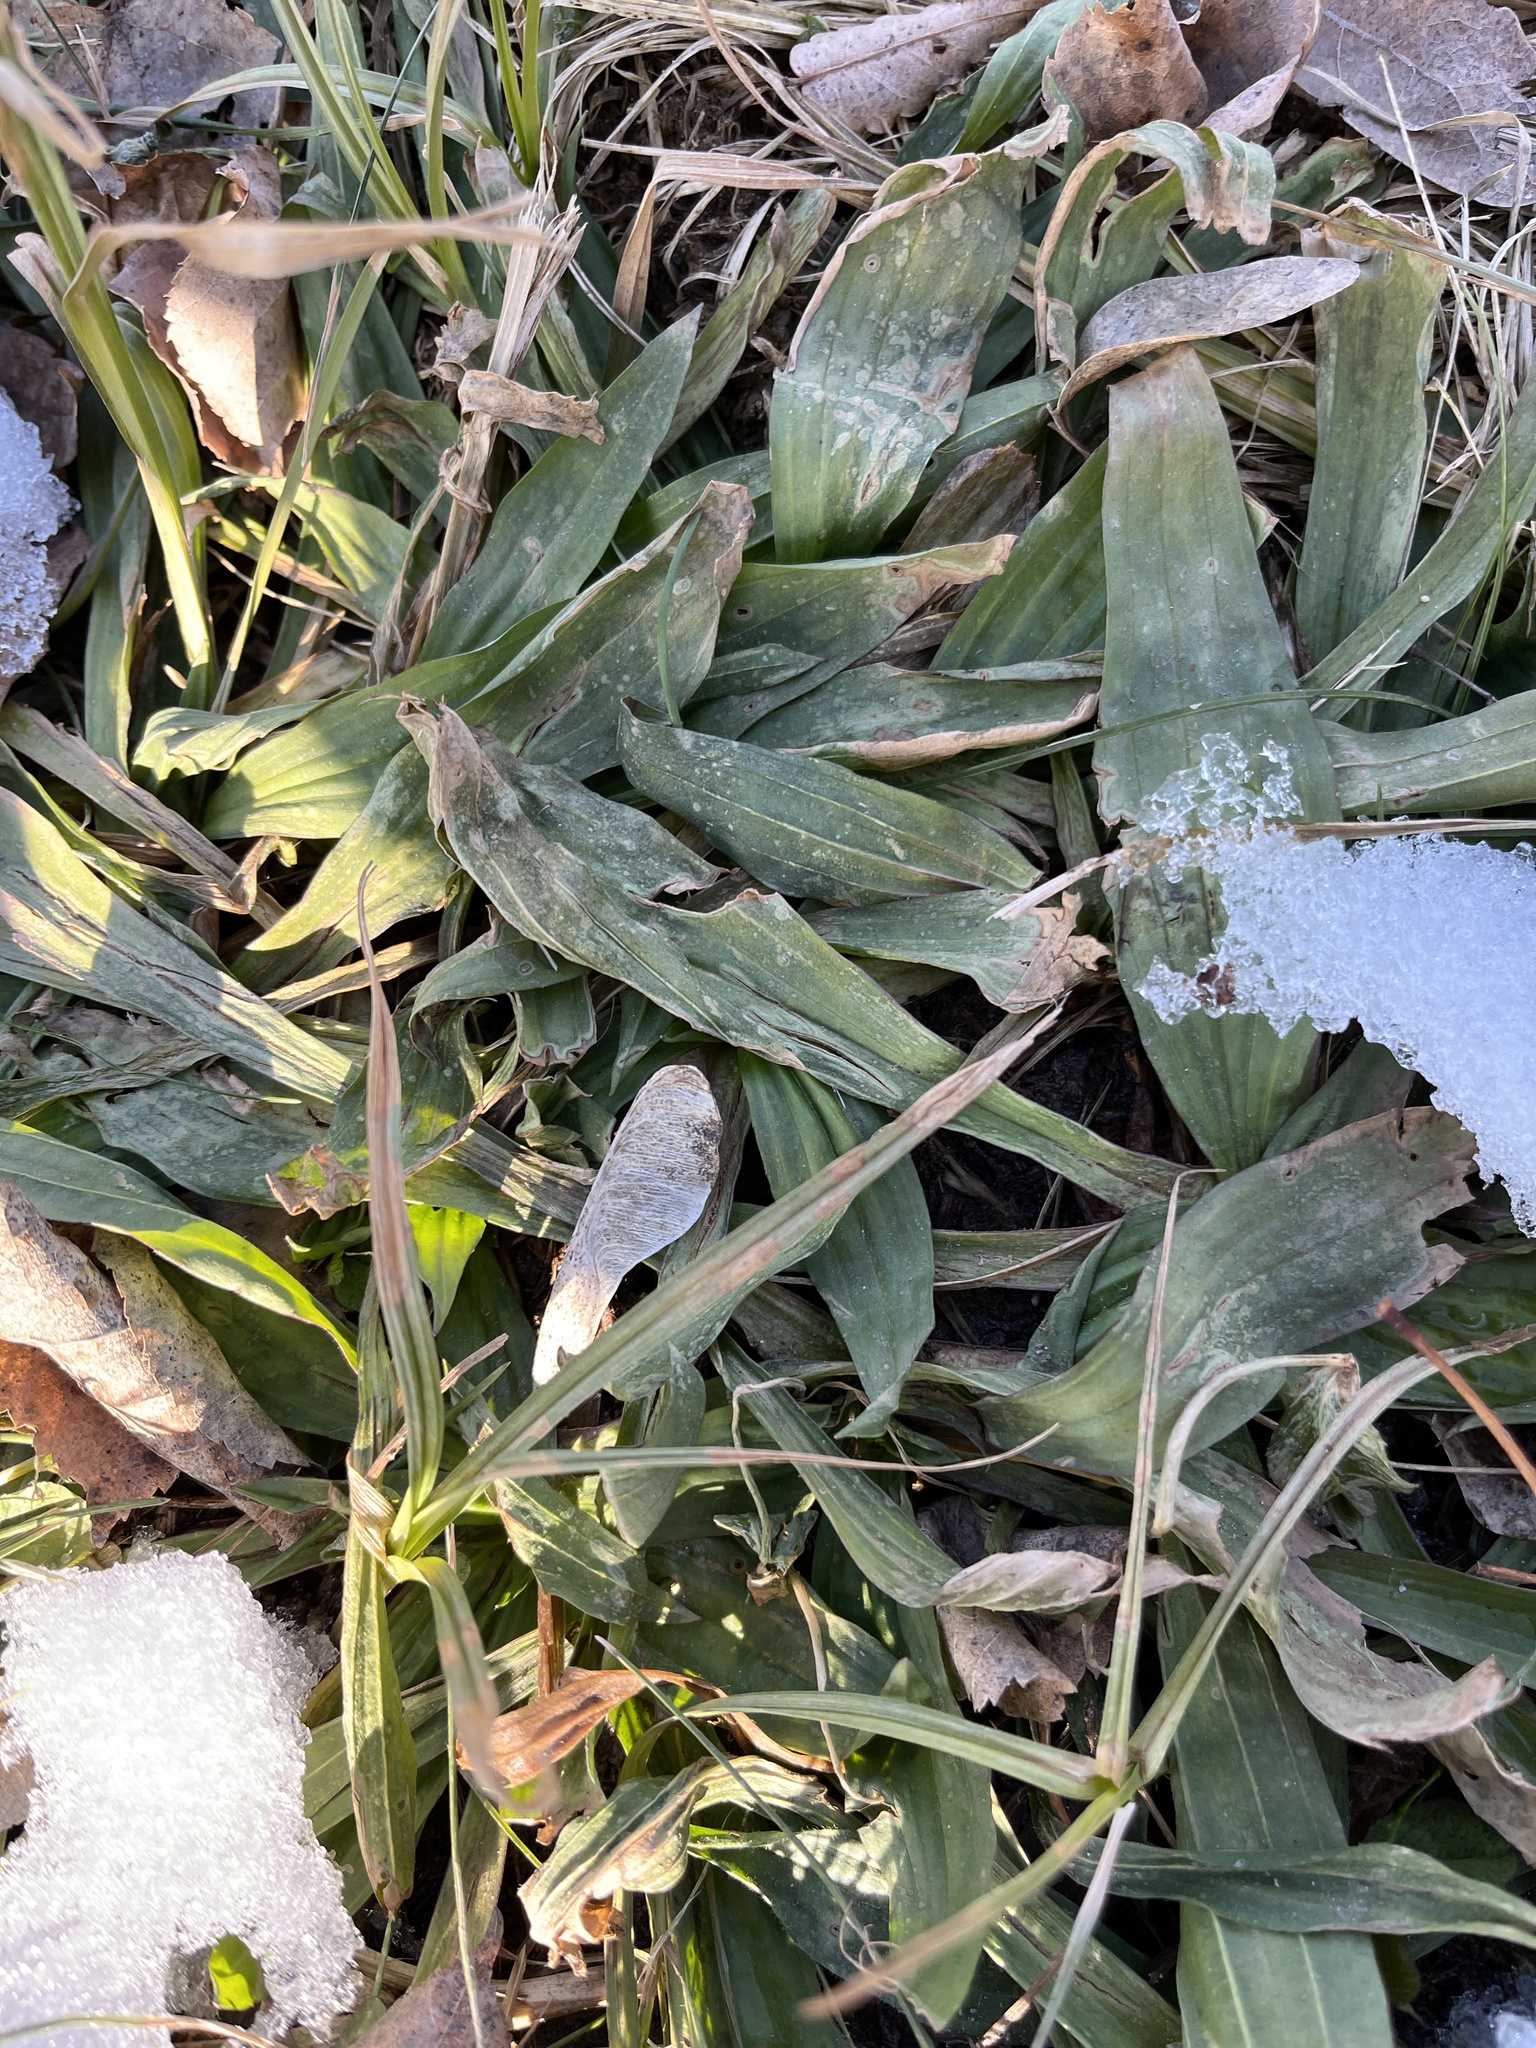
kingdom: Plantae
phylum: Tracheophyta
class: Magnoliopsida
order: Lamiales
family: Plantaginaceae
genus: Plantago
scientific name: Plantago lanceolata
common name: Ribwort plantain
